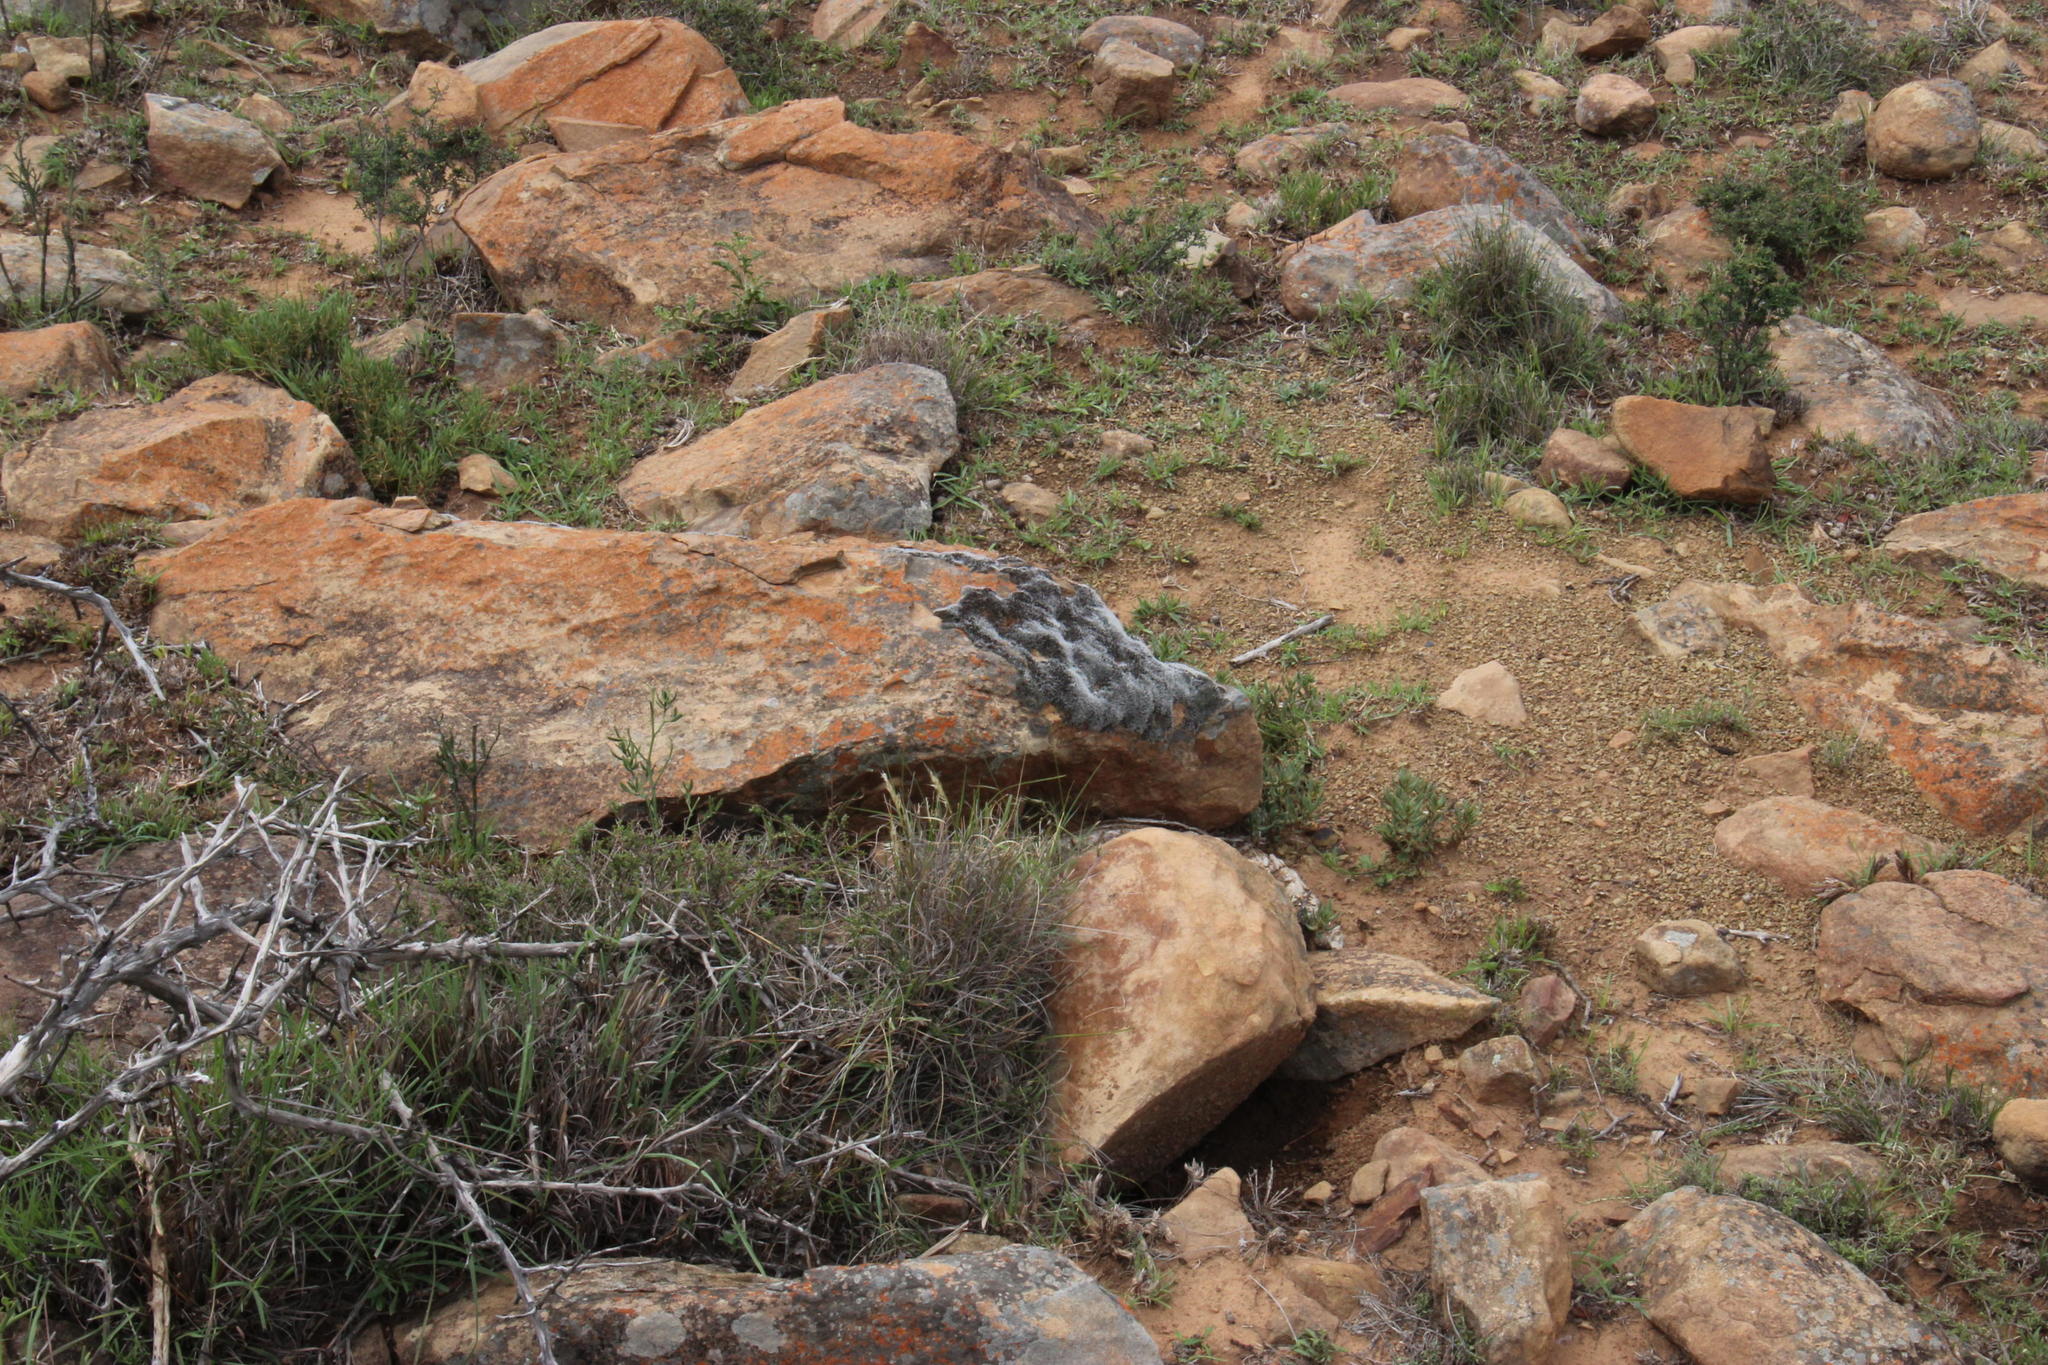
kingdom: Plantae
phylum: Bryophyta
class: Bryopsida
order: Grimmiales
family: Grimmiaceae
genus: Grimmia
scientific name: Grimmia laevigata
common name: Hoary grimmia
